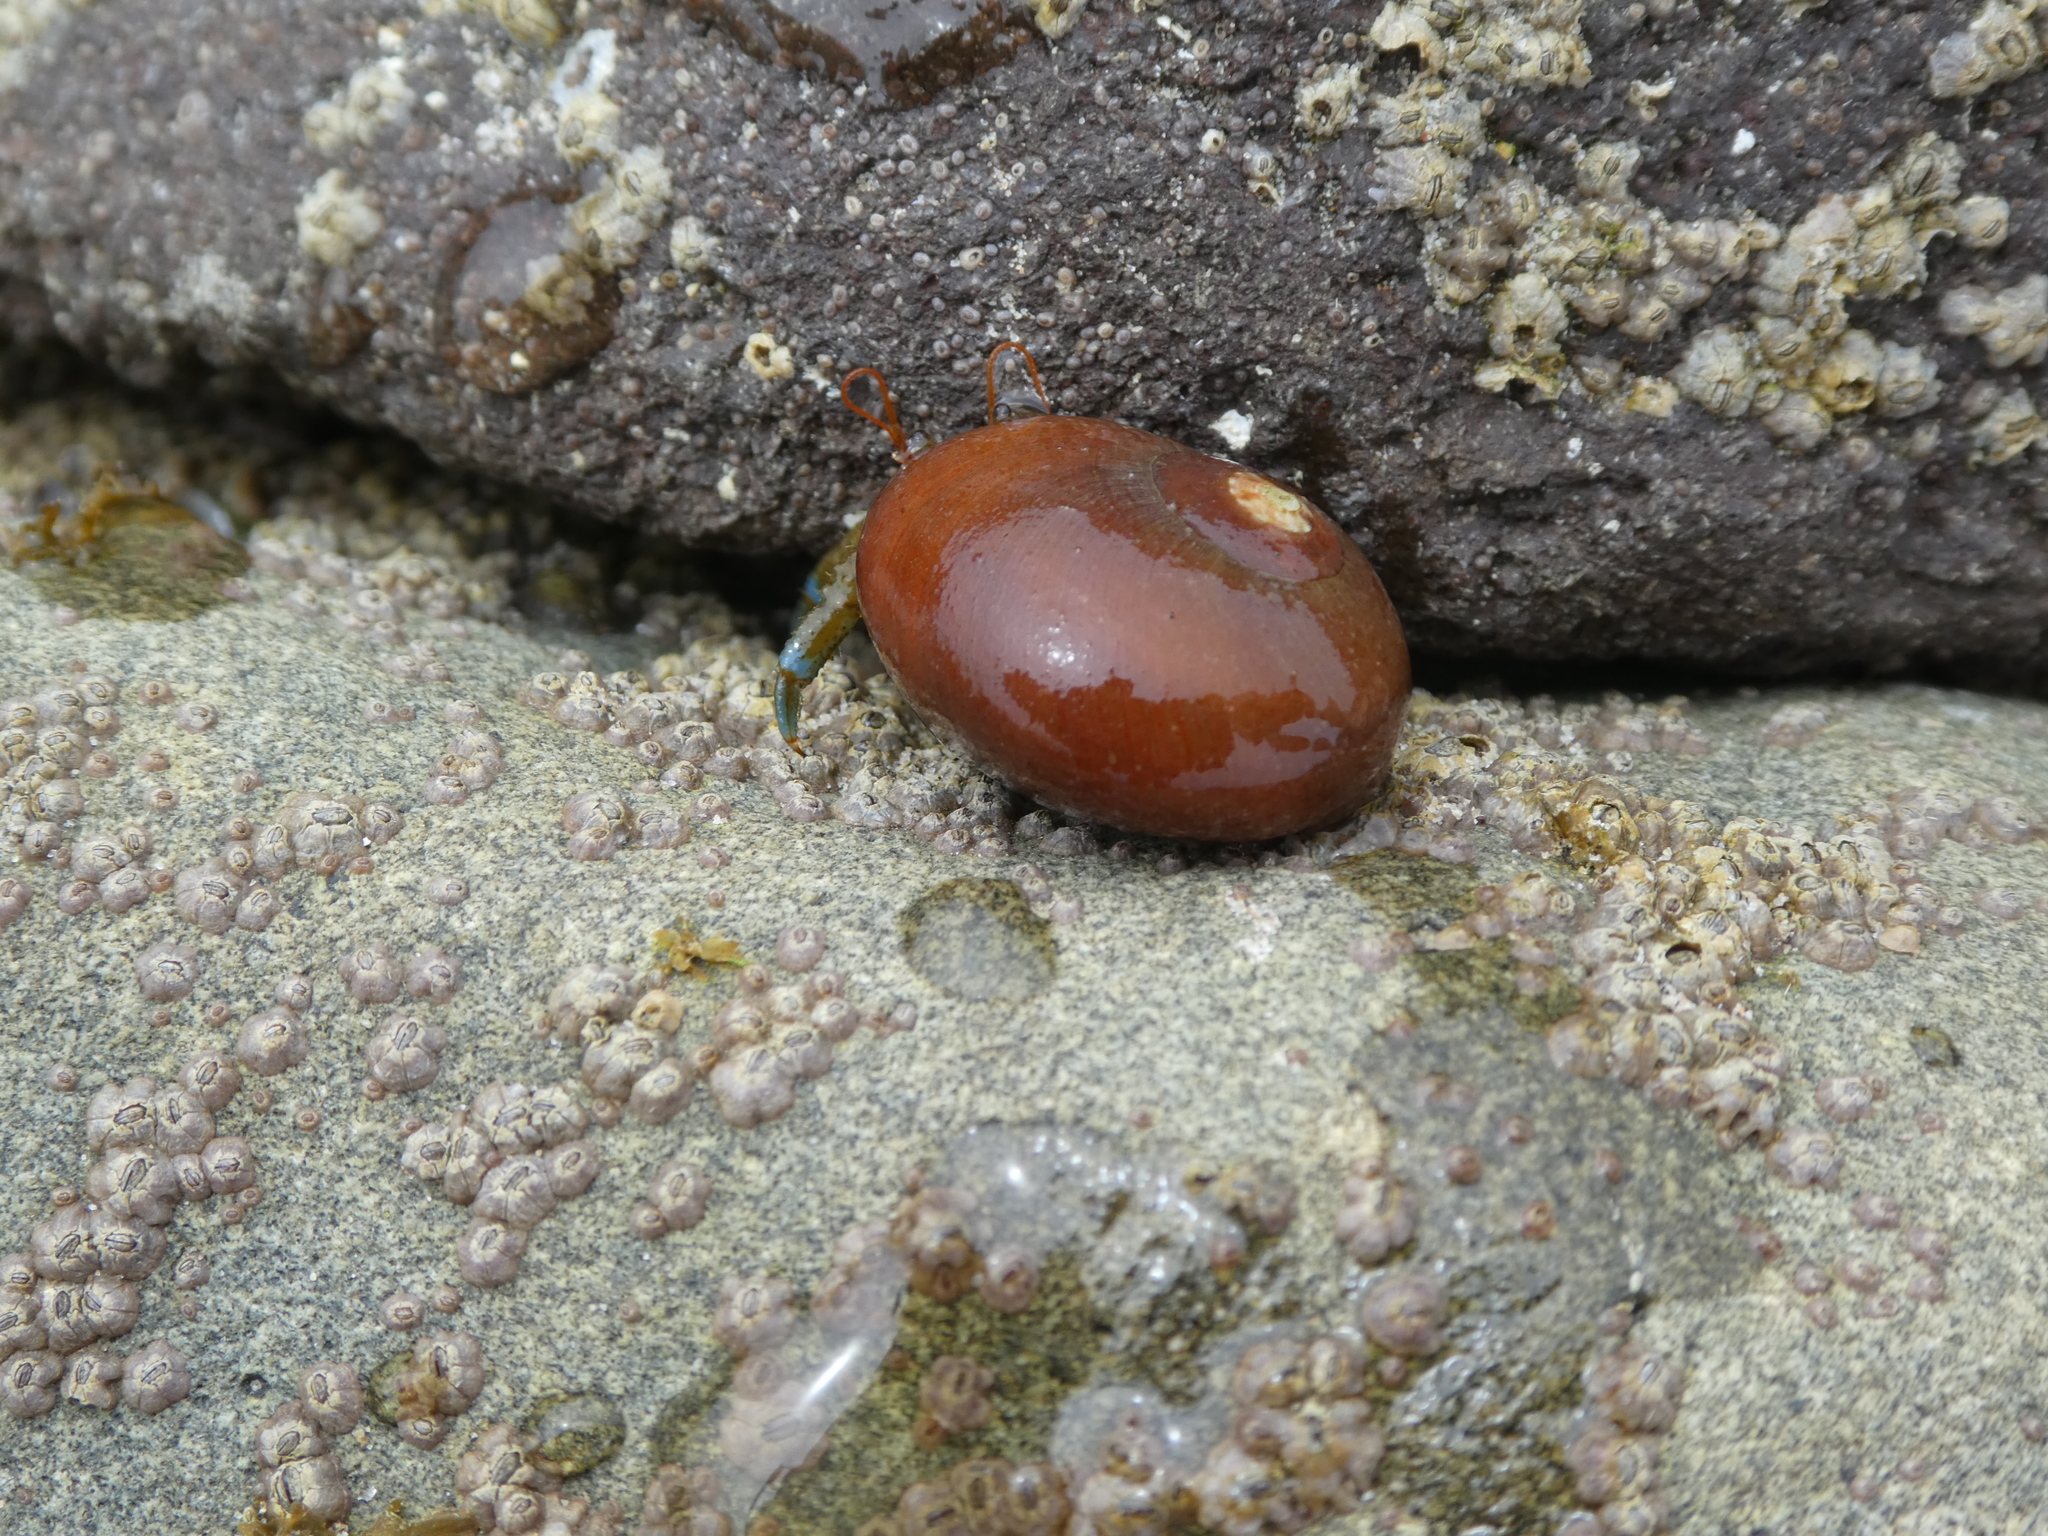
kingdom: Animalia
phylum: Arthropoda
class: Malacostraca
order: Decapoda
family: Paguridae
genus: Pagurus
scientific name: Pagurus samuelis
